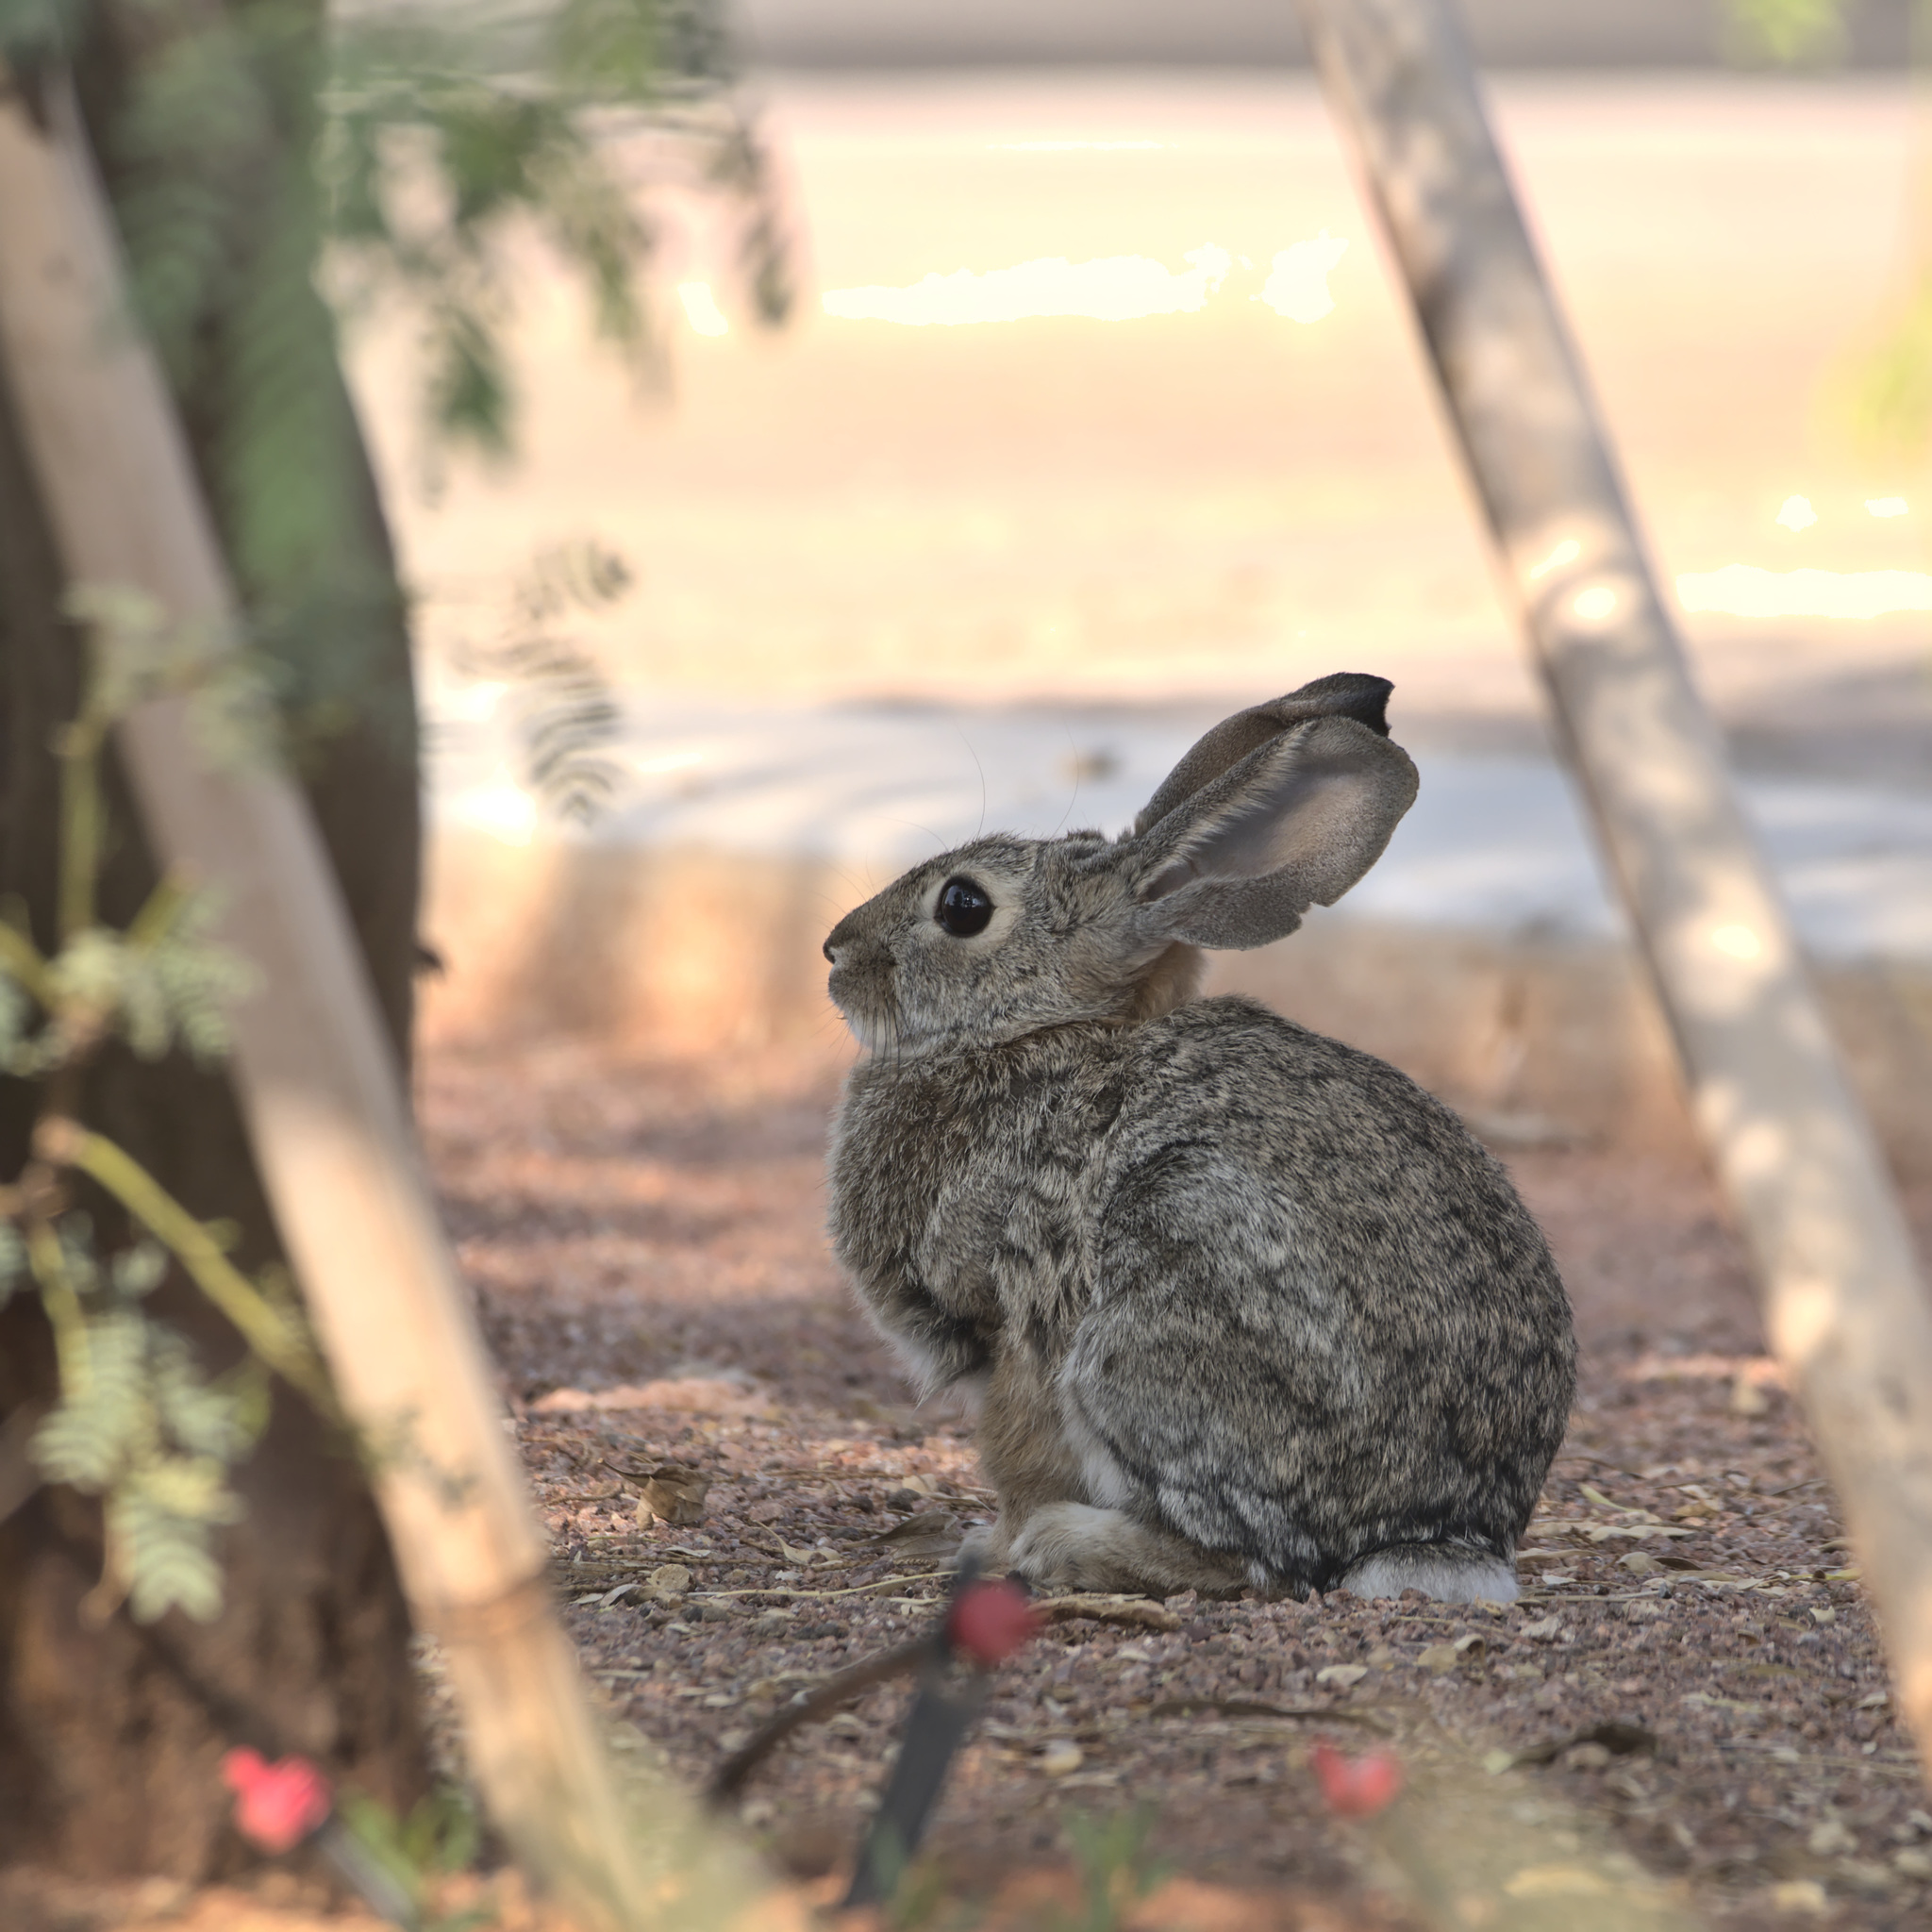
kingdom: Animalia
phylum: Chordata
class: Mammalia
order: Lagomorpha
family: Leporidae
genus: Sylvilagus
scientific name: Sylvilagus audubonii
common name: Desert cottontail
